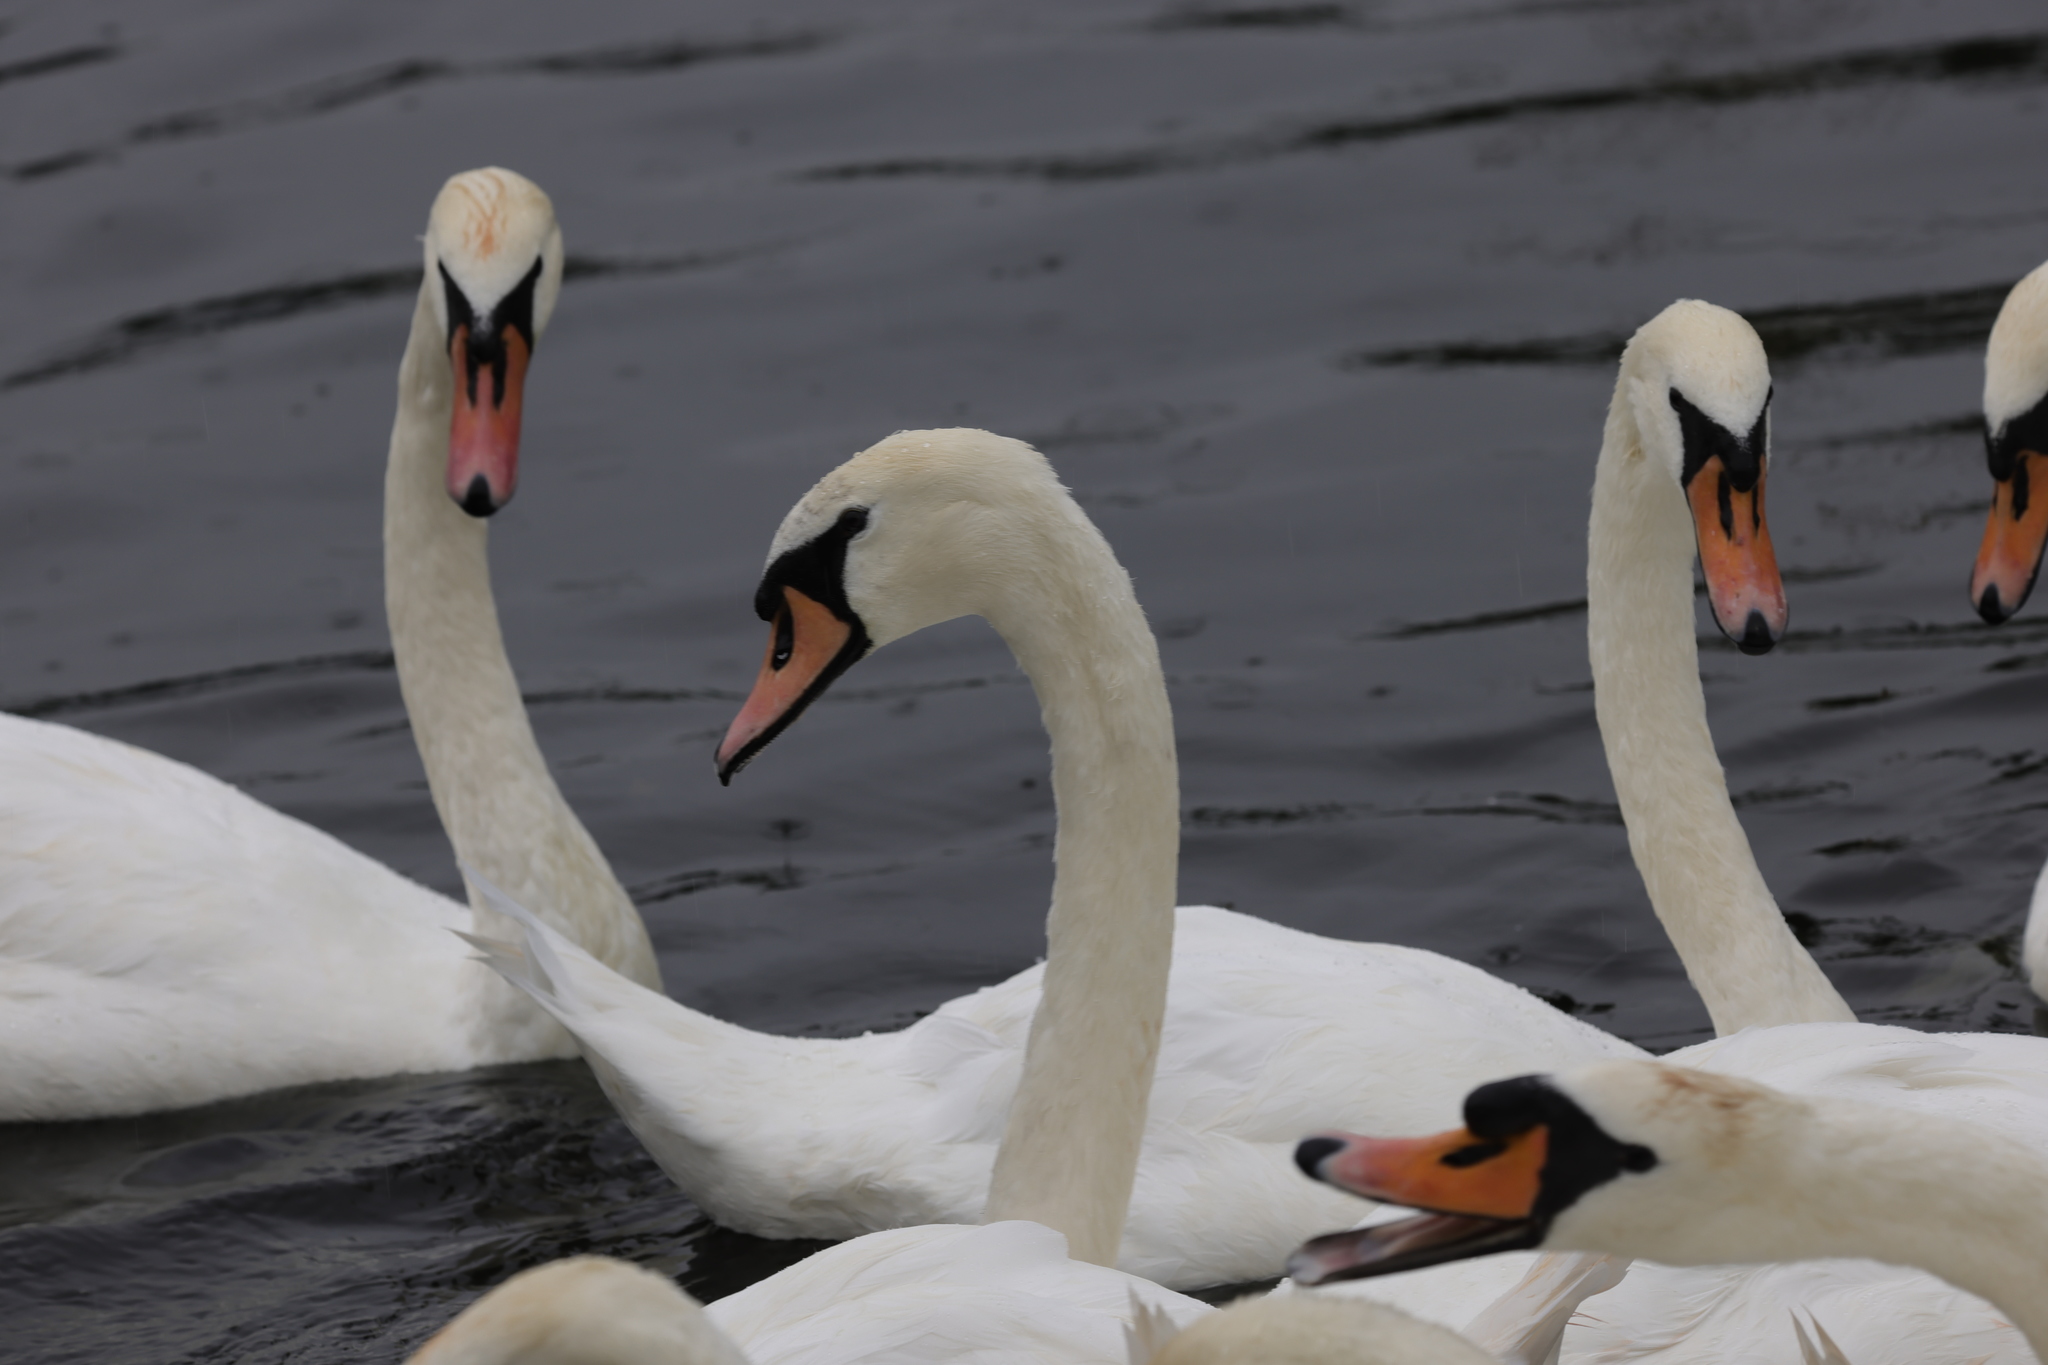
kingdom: Animalia
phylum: Chordata
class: Aves
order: Anseriformes
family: Anatidae
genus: Cygnus
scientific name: Cygnus olor
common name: Mute swan
